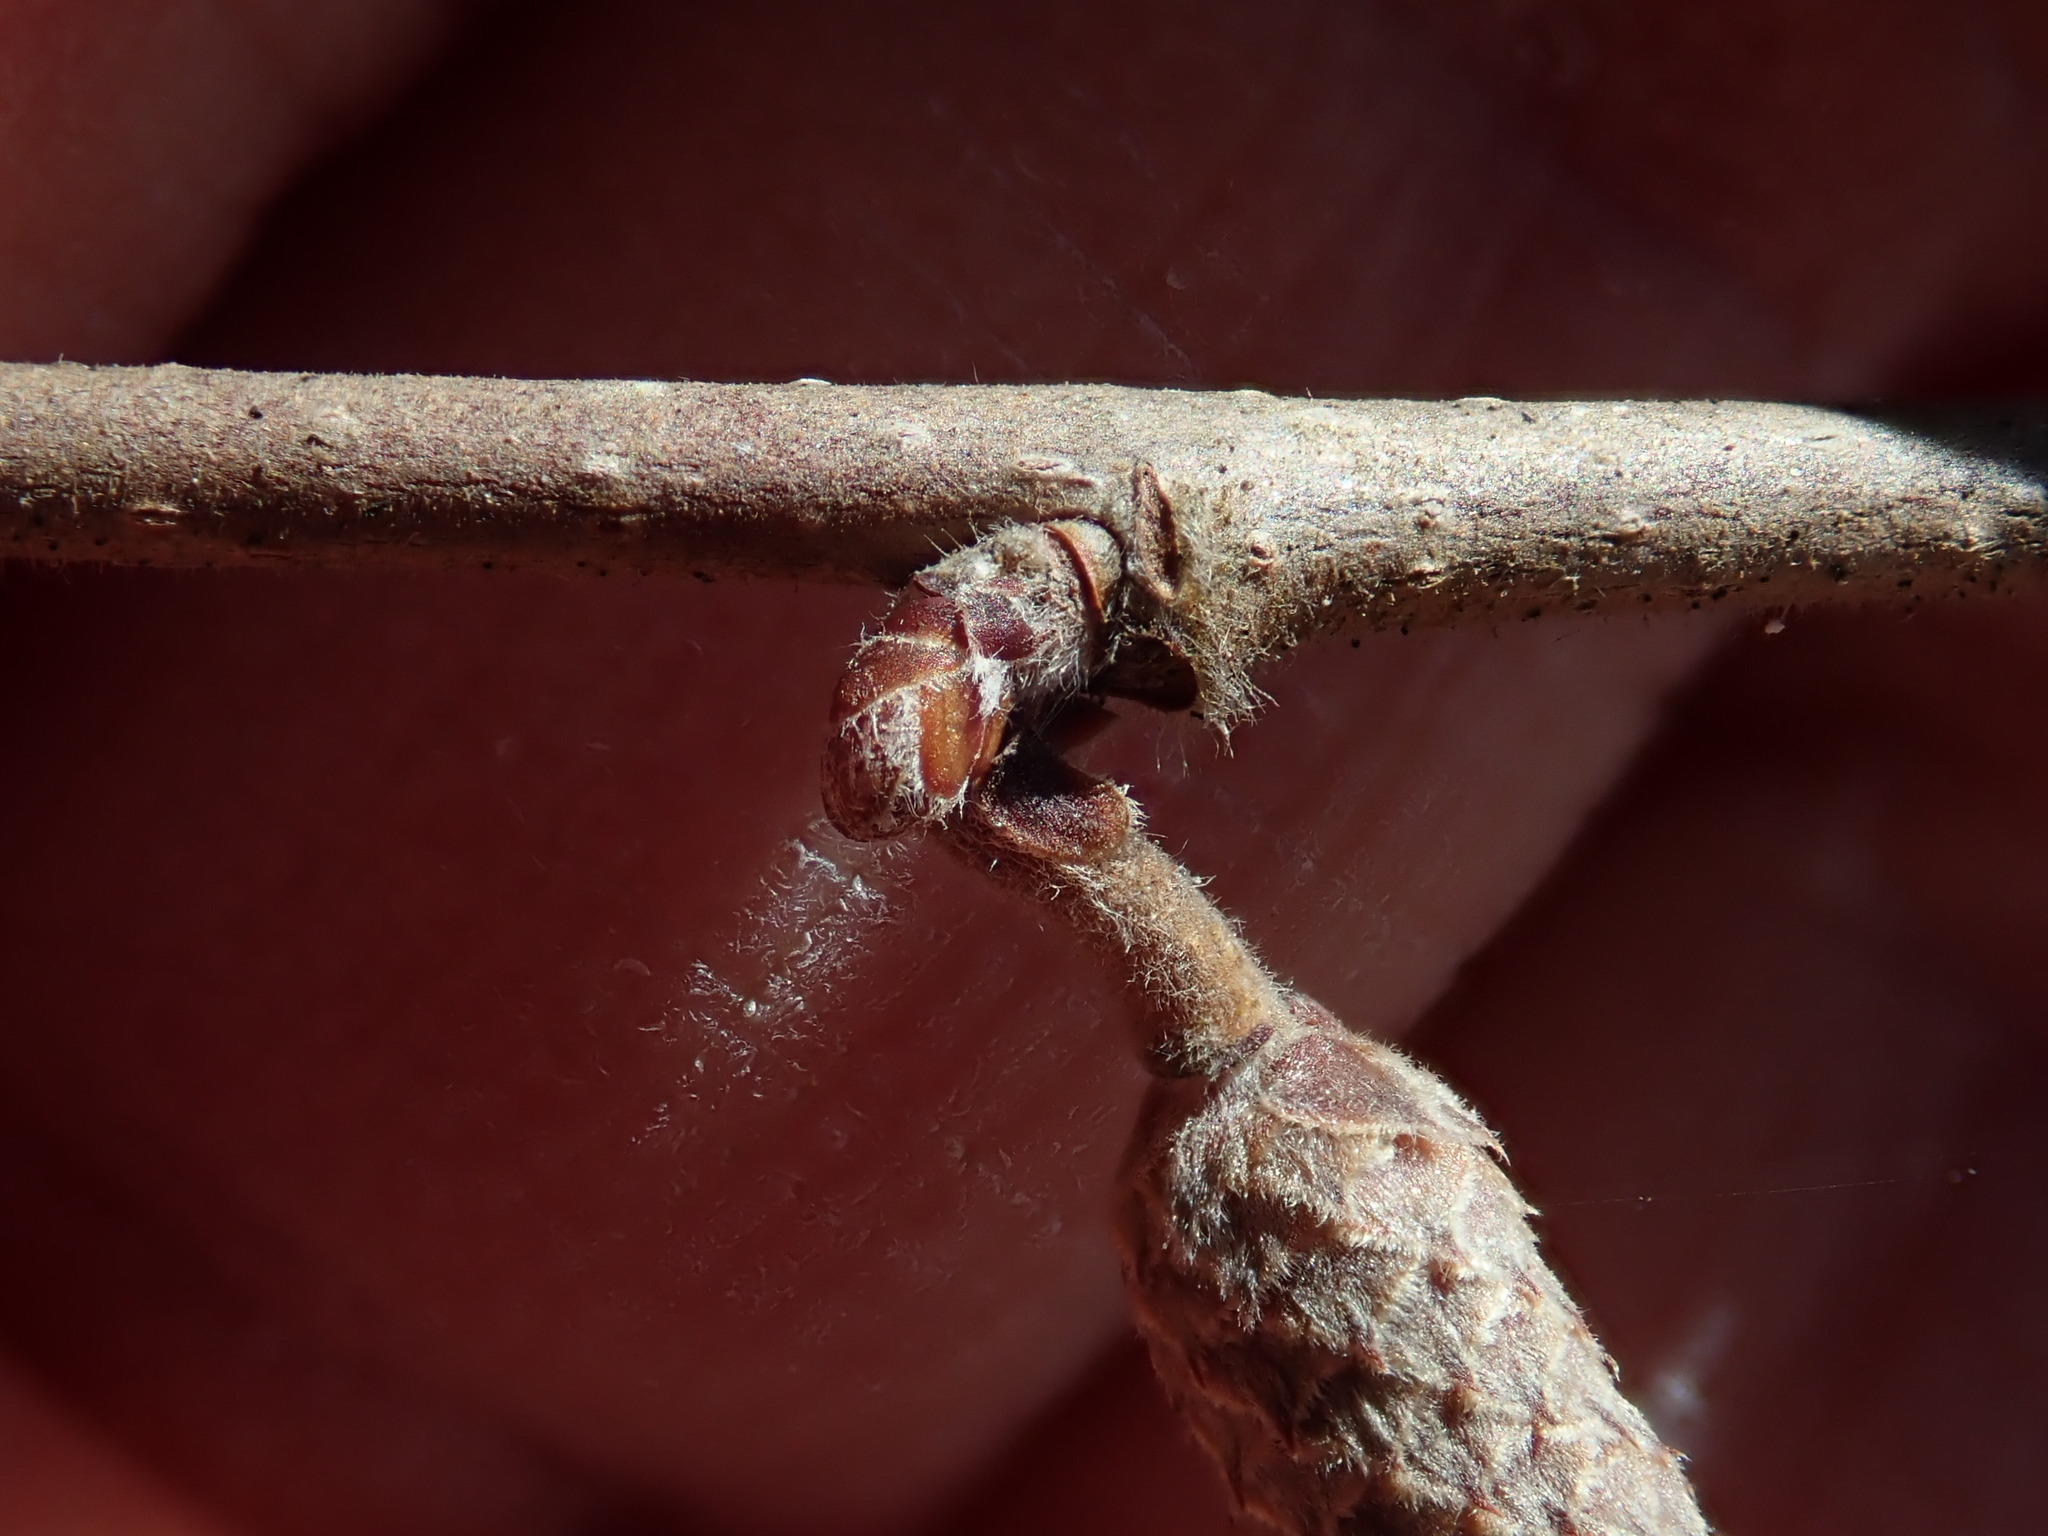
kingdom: Plantae
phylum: Tracheophyta
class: Magnoliopsida
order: Fagales
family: Betulaceae
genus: Corylus
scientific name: Corylus americana
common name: American hazel
